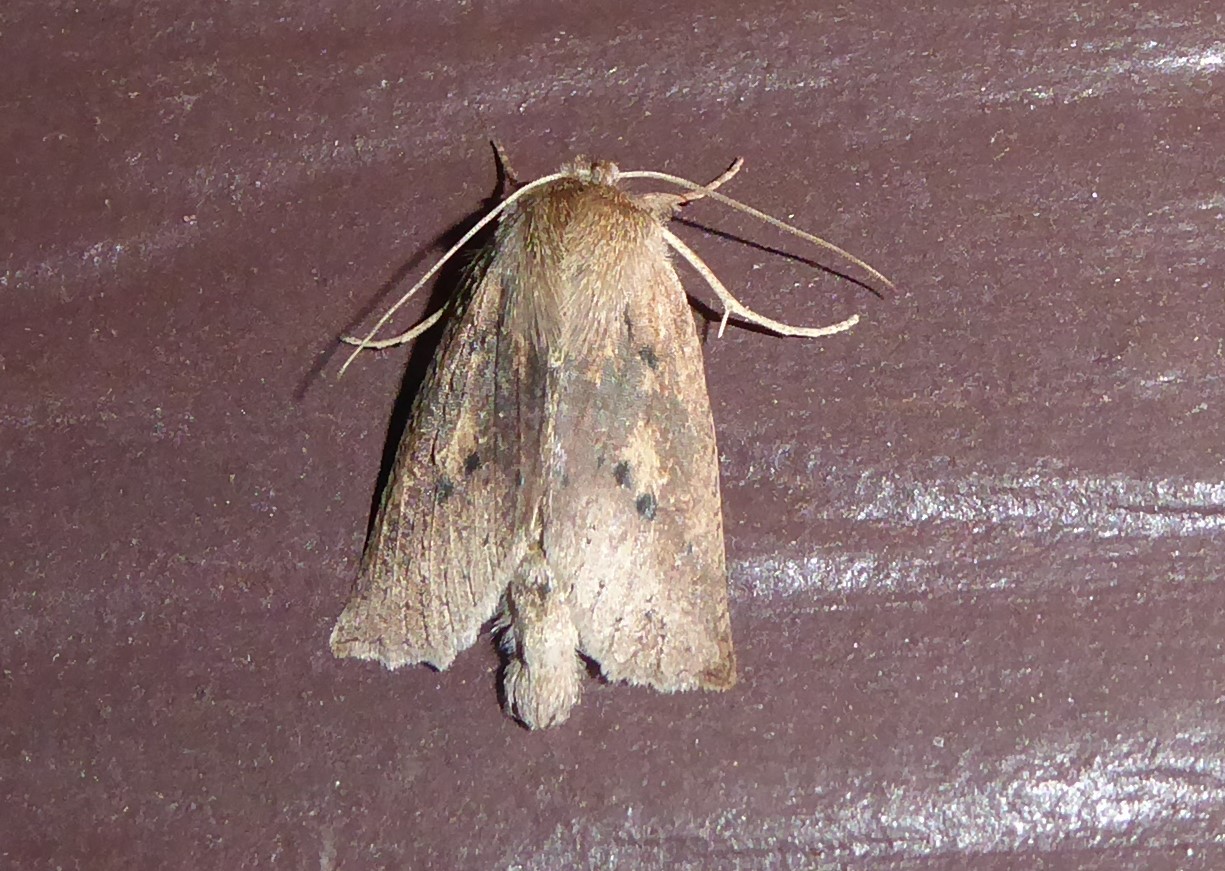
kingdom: Animalia
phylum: Arthropoda
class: Insecta
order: Lepidoptera
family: Geometridae
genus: Declana
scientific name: Declana leptomera
